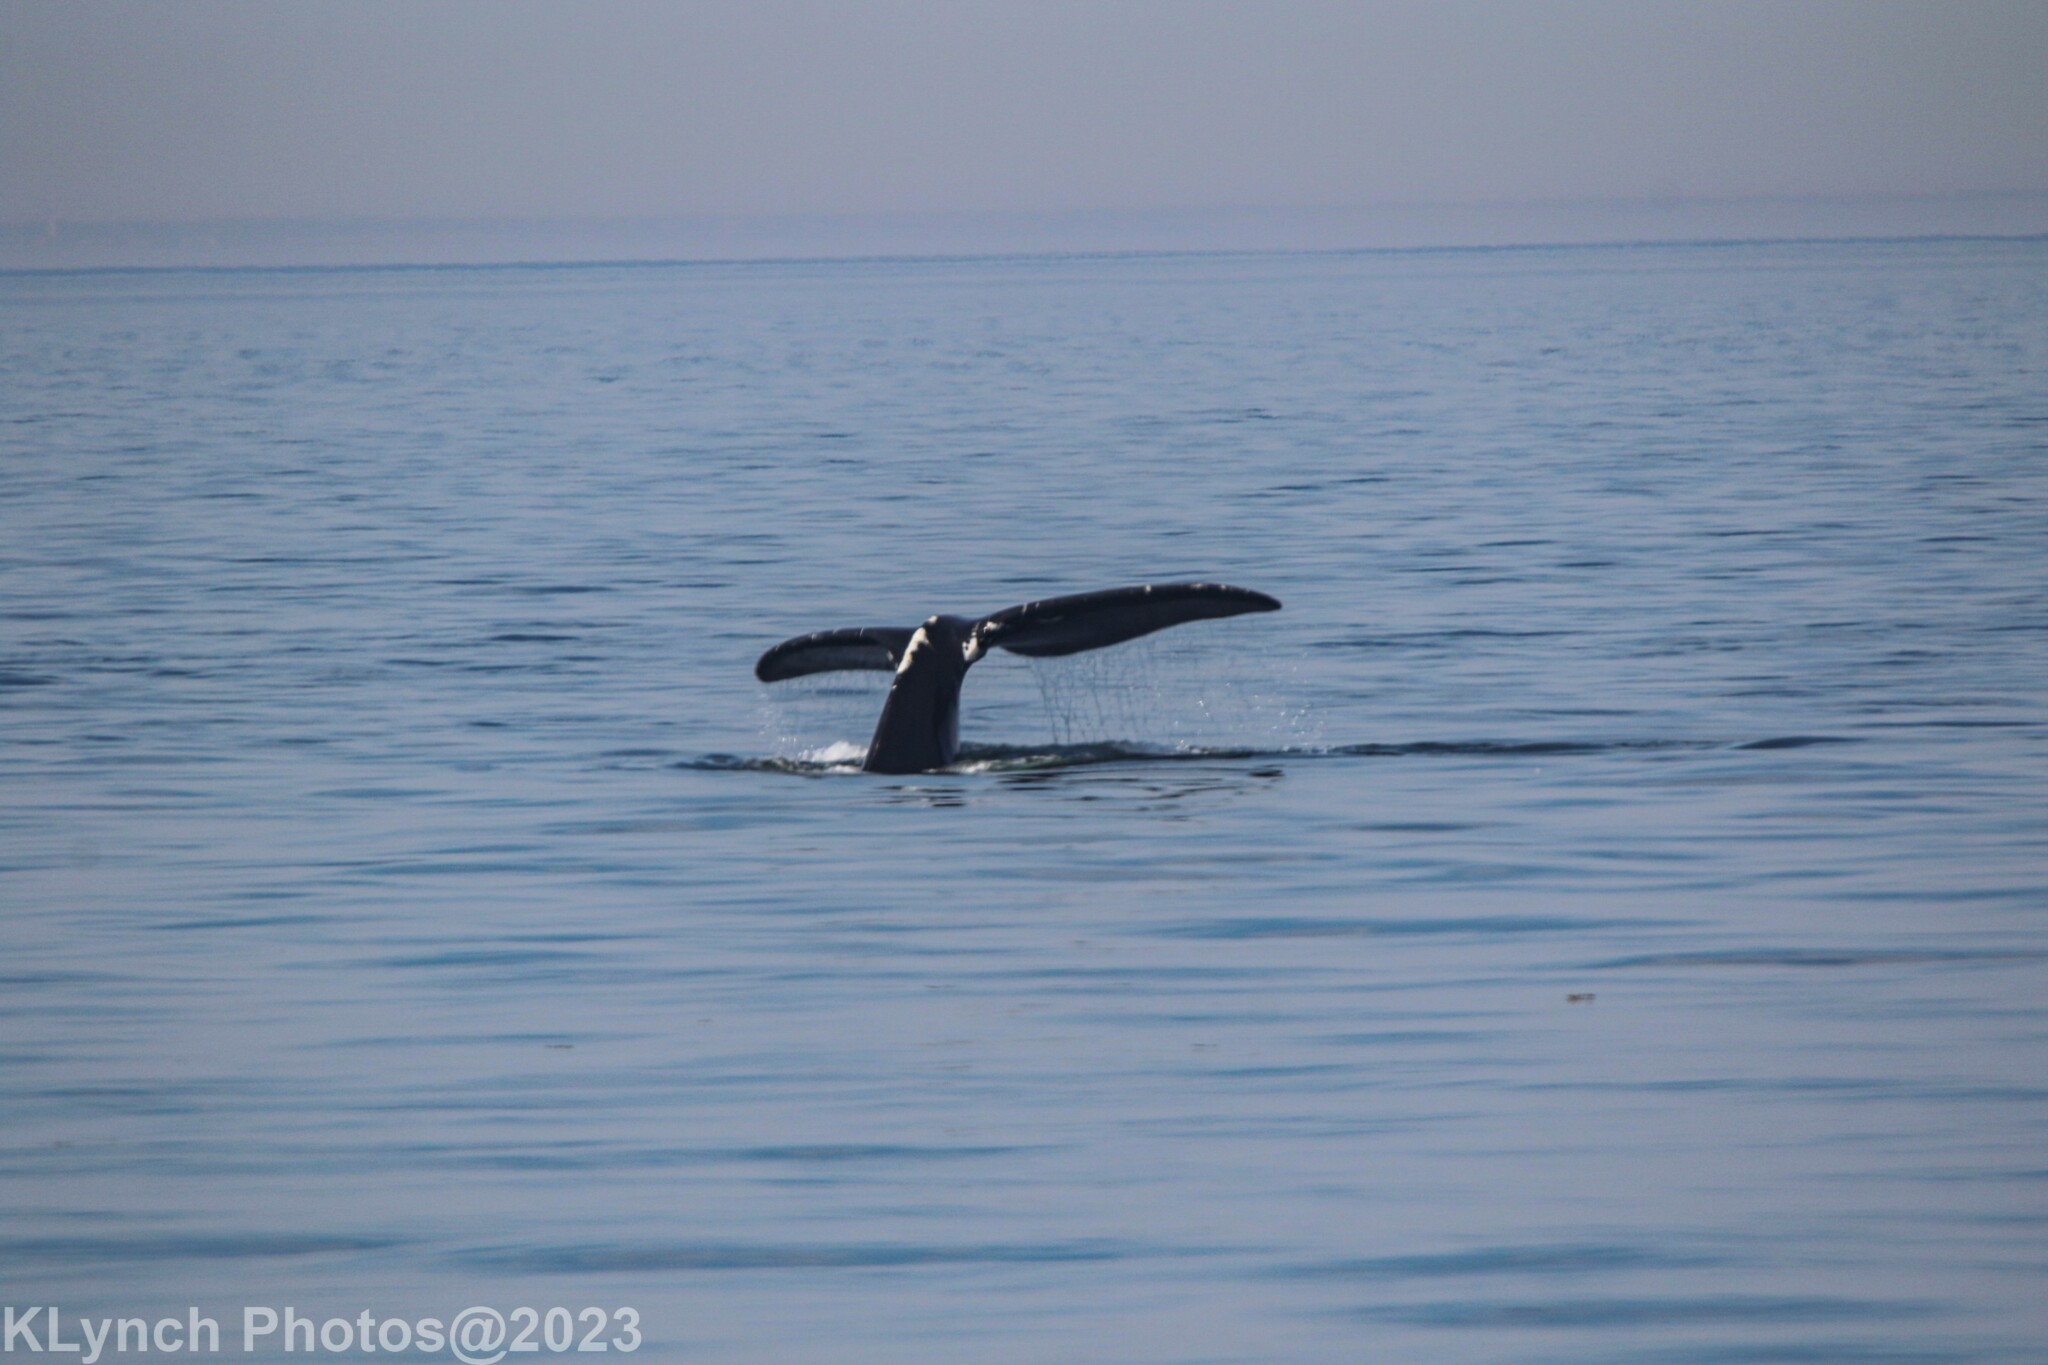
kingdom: Animalia
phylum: Chordata
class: Mammalia
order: Cetacea
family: Balaenidae
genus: Eubalaena
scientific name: Eubalaena glacialis
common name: North atlantic right whale
